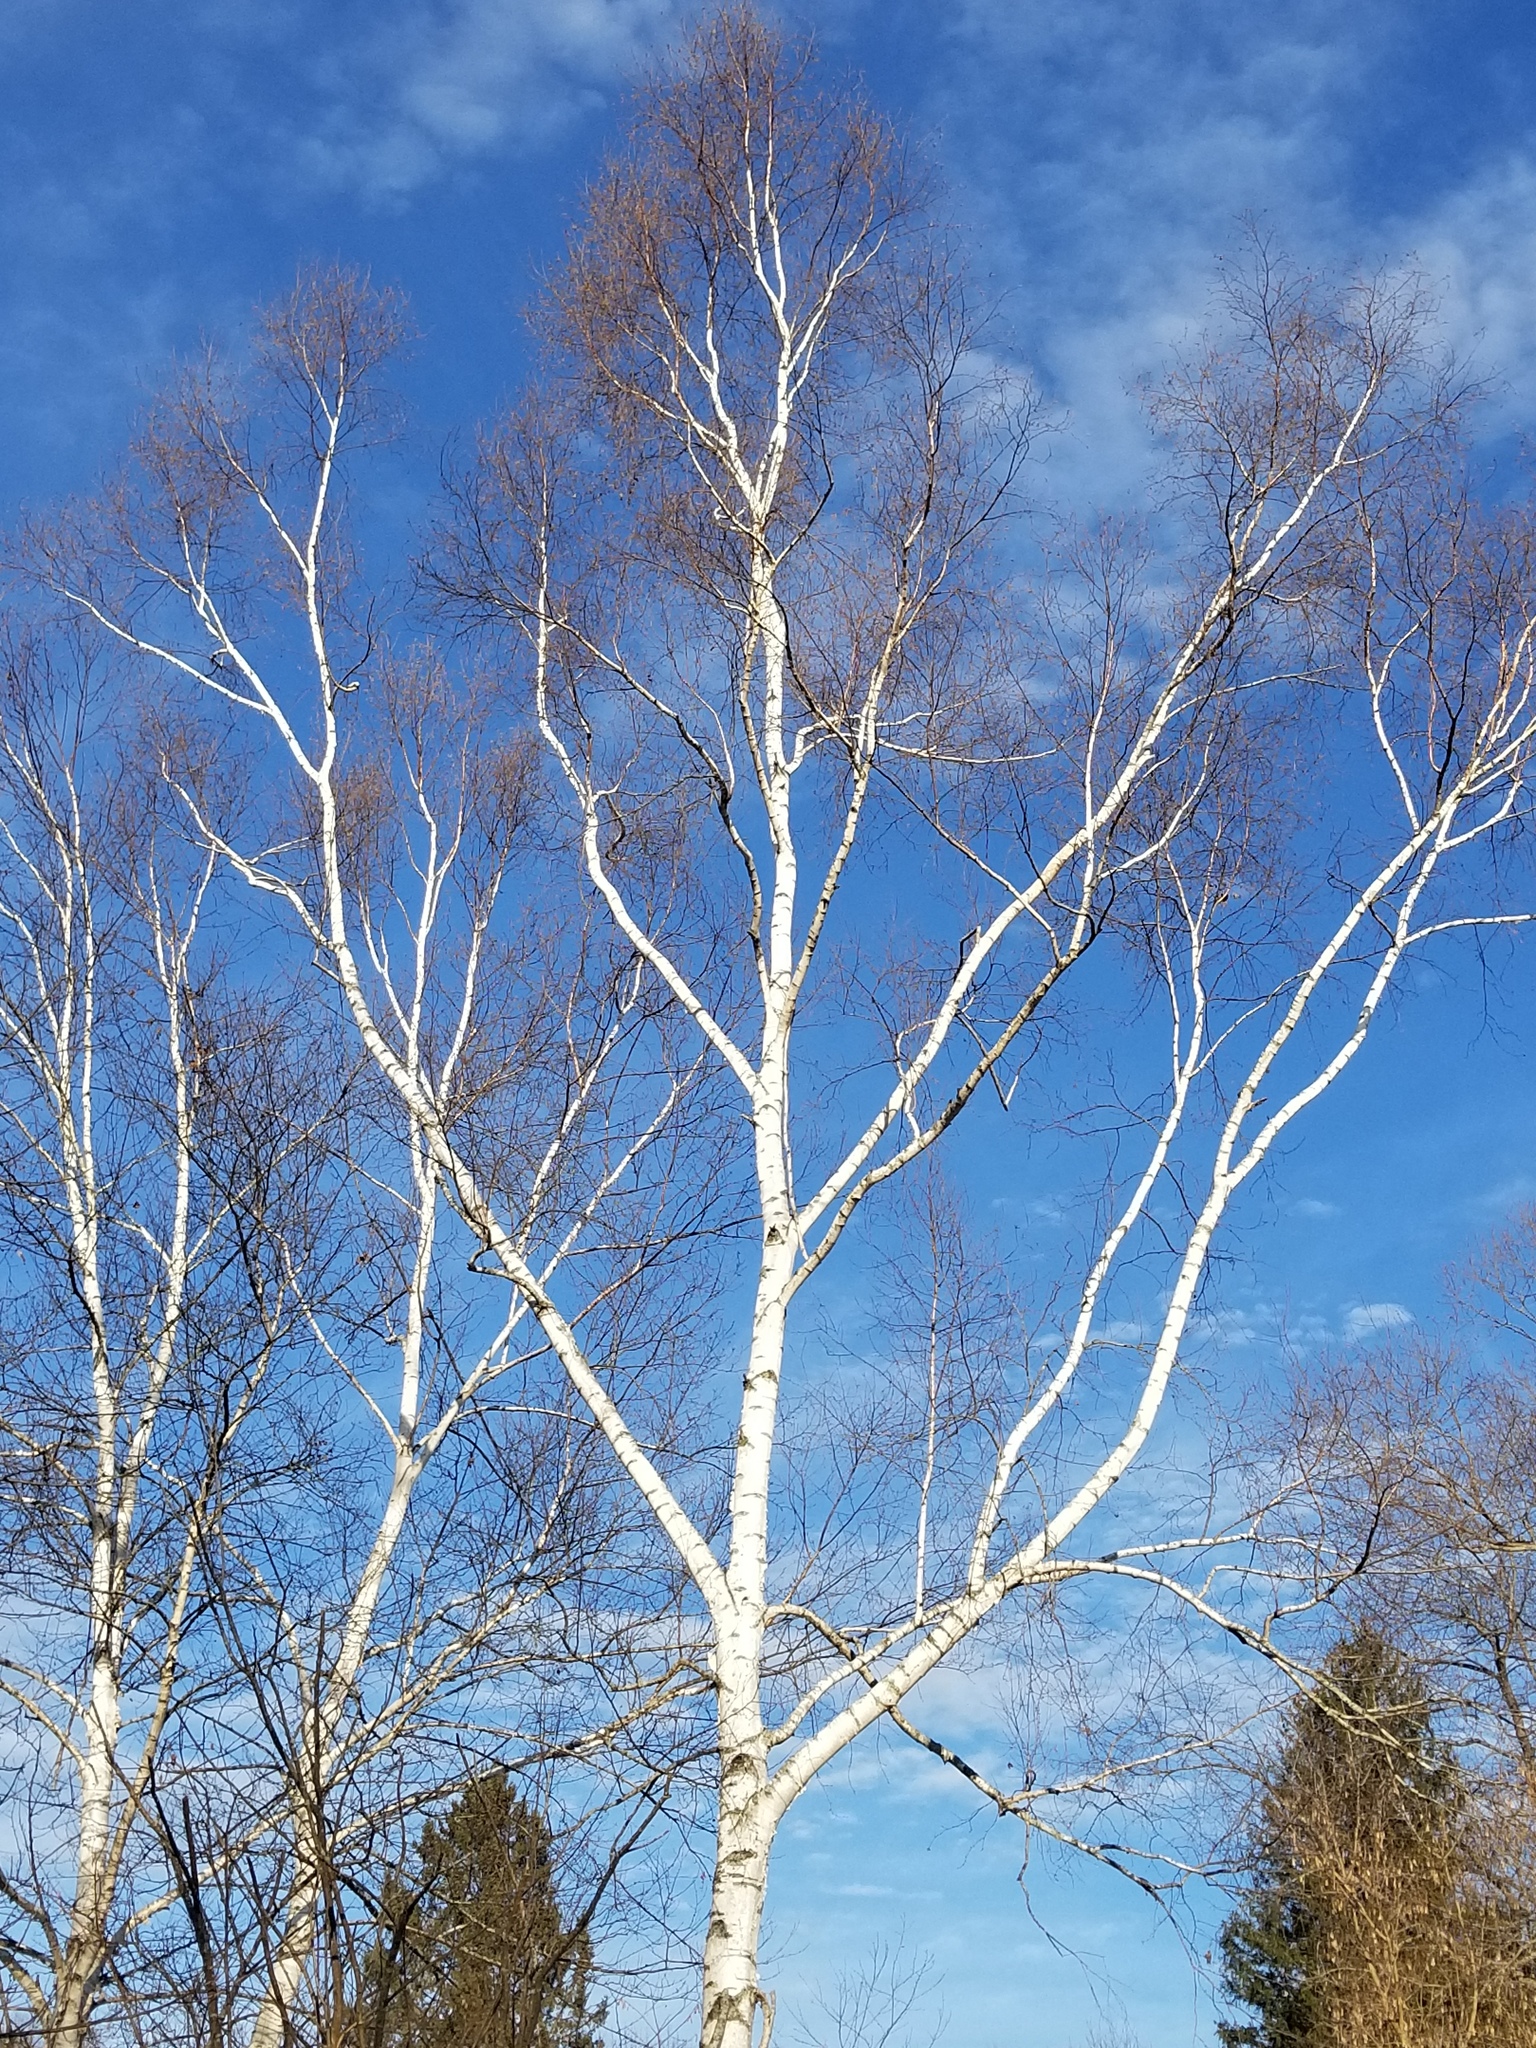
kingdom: Plantae
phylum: Tracheophyta
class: Magnoliopsida
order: Fagales
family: Betulaceae
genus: Betula
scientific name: Betula papyrifera
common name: Paper birch
